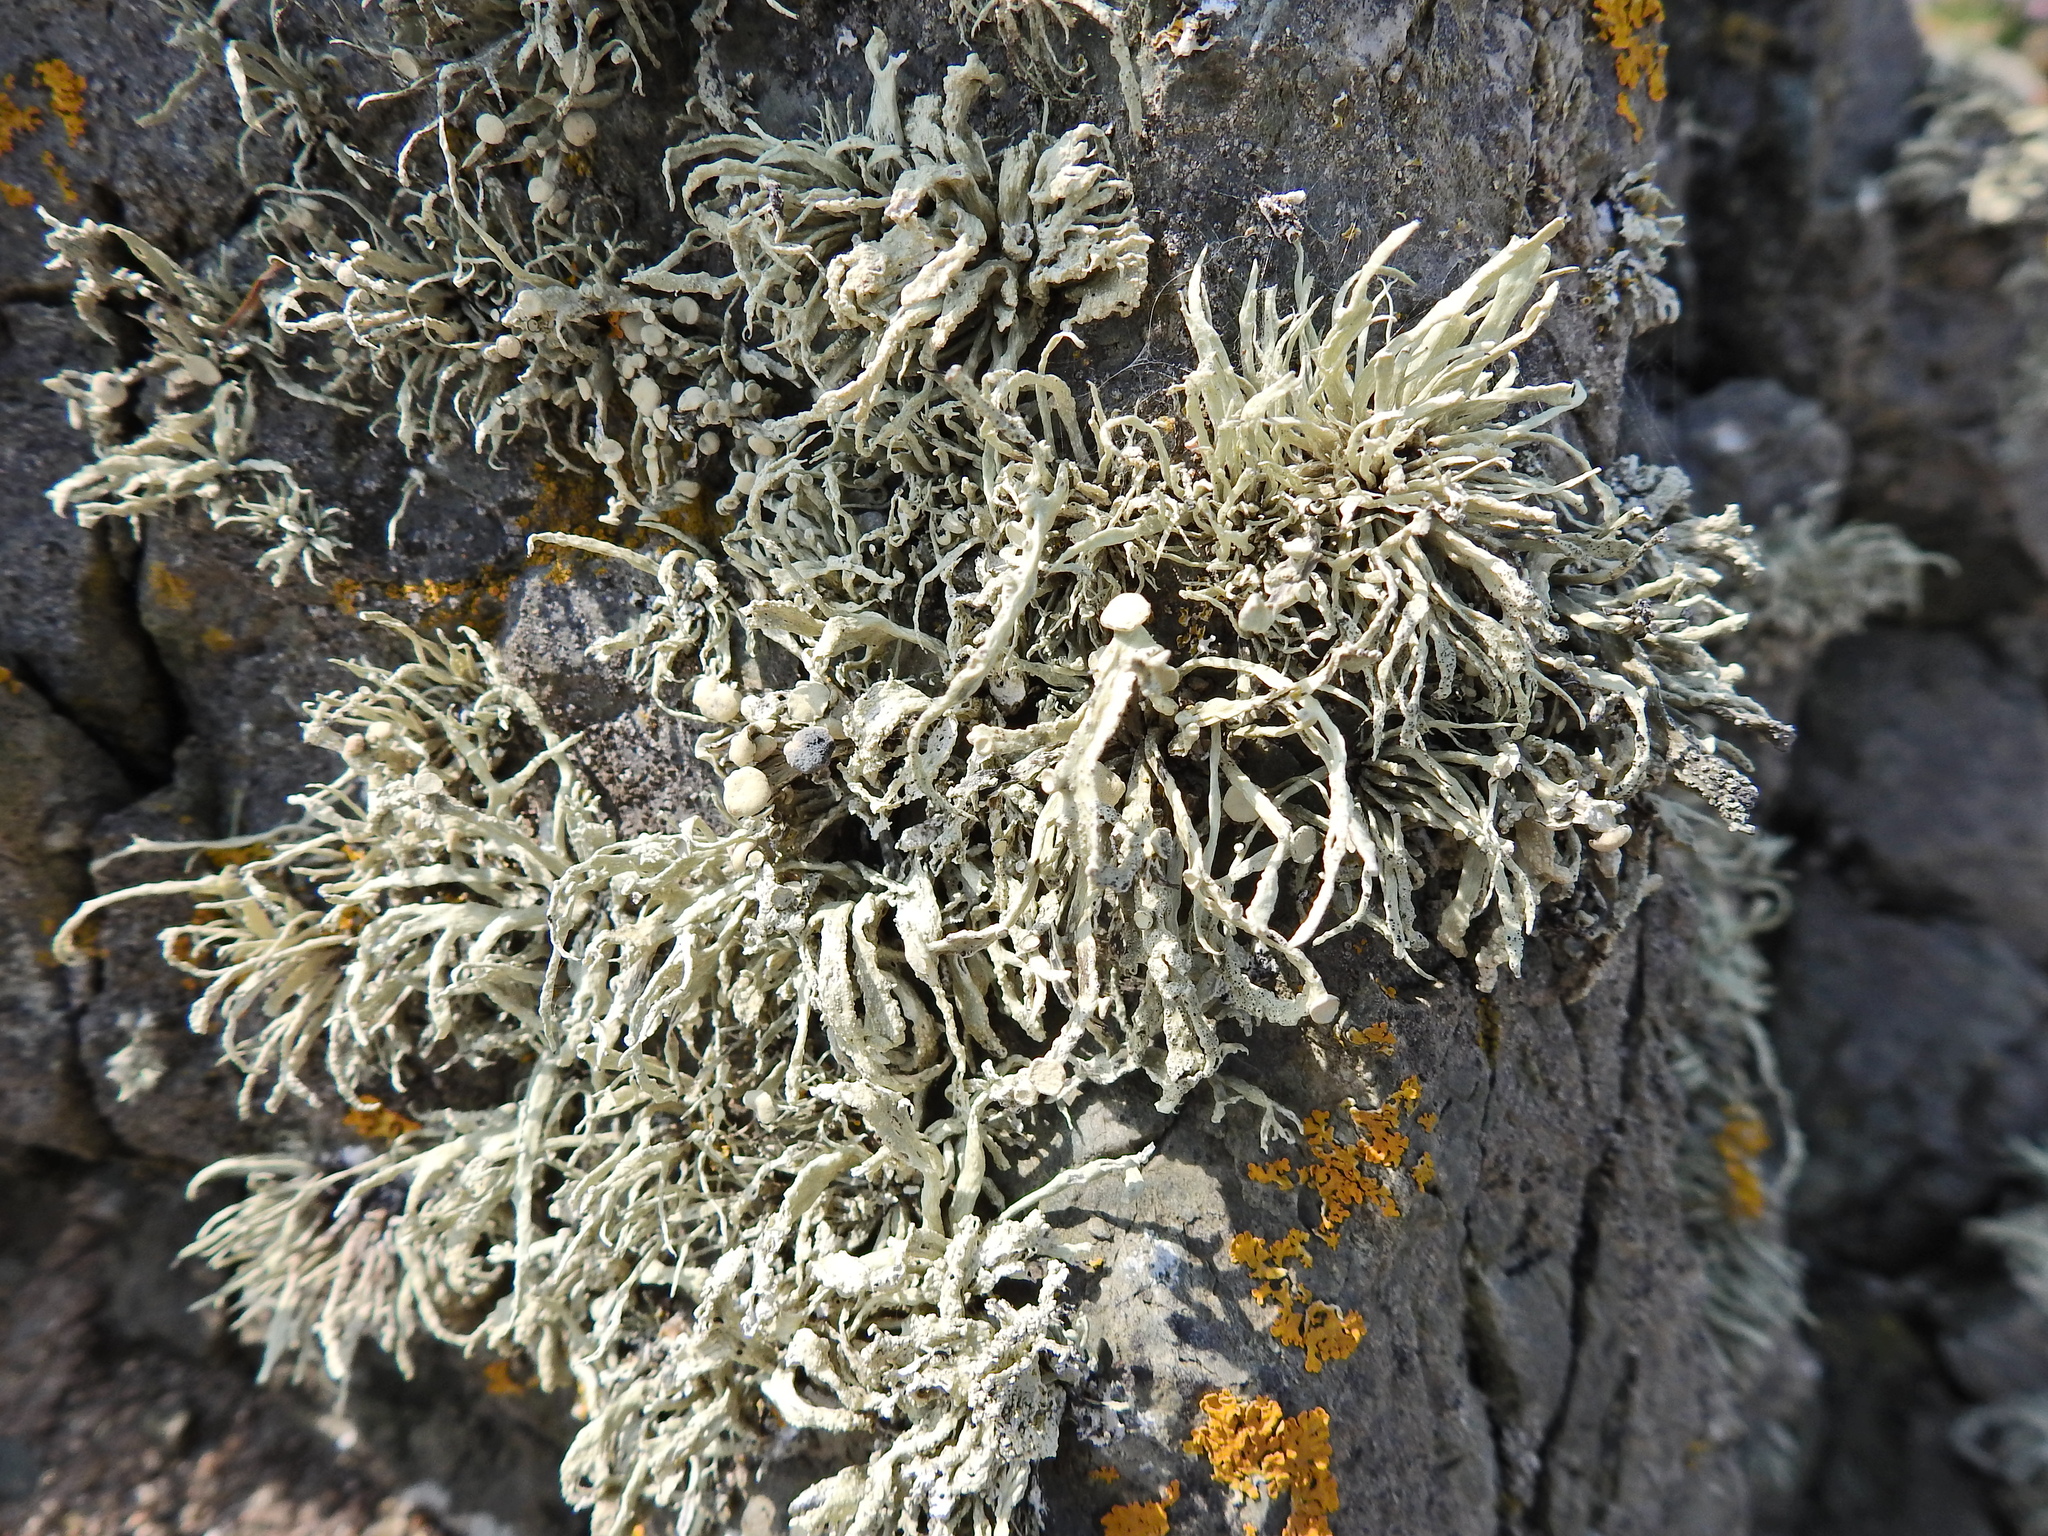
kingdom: Fungi
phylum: Ascomycota
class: Lecanoromycetes
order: Lecanorales
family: Ramalinaceae
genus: Ramalina
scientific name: Ramalina siliquosa
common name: Sea ivory
